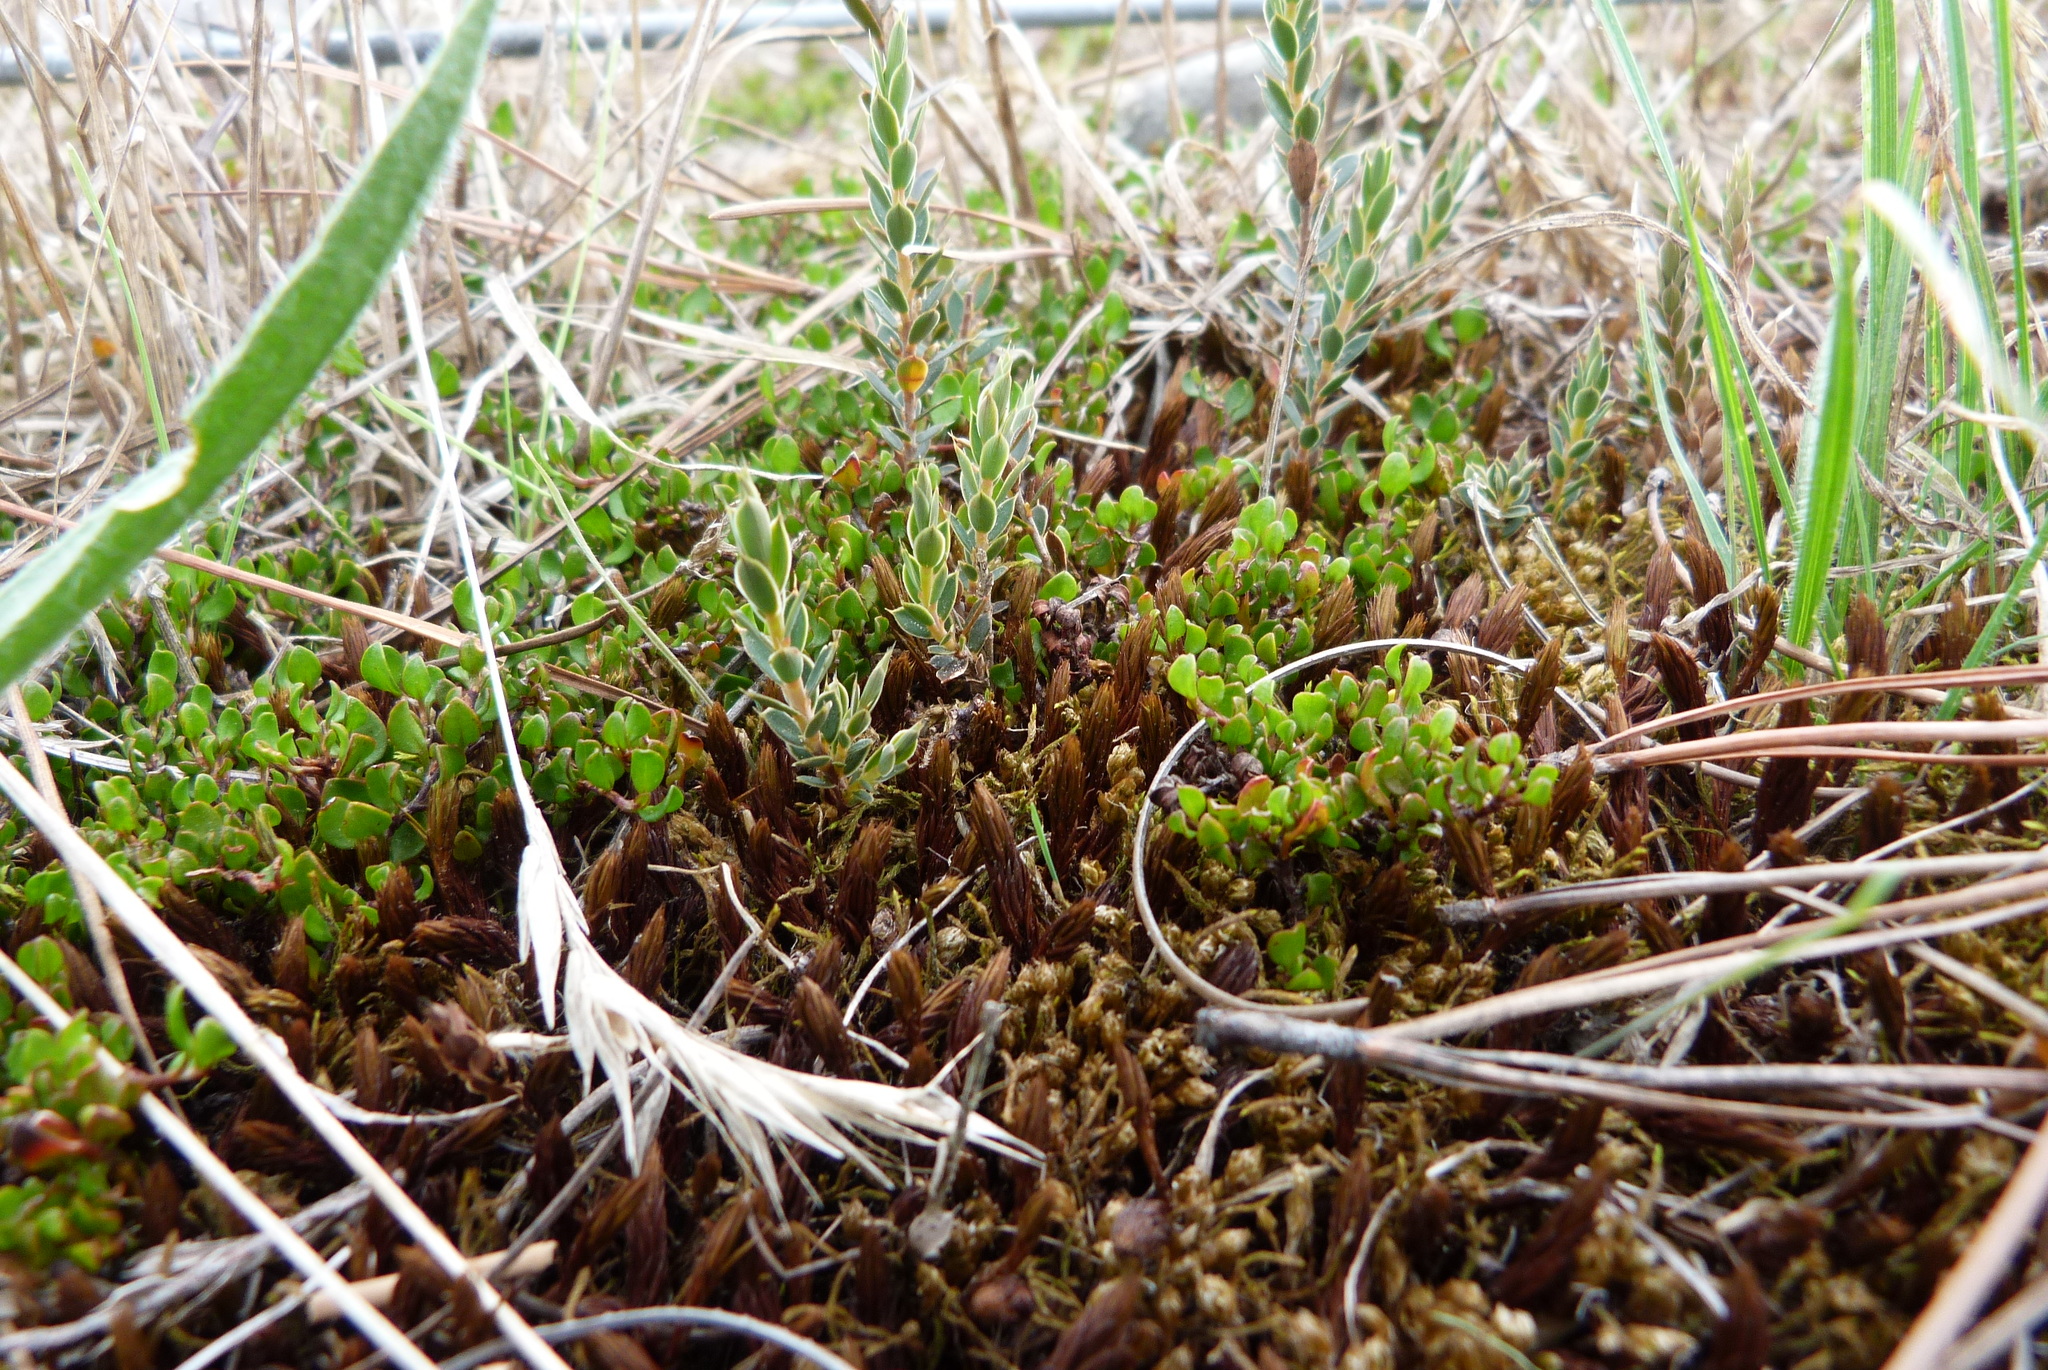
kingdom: Plantae
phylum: Tracheophyta
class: Magnoliopsida
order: Ericales
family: Ericaceae
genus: Styphelia
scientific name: Styphelia nesophila
